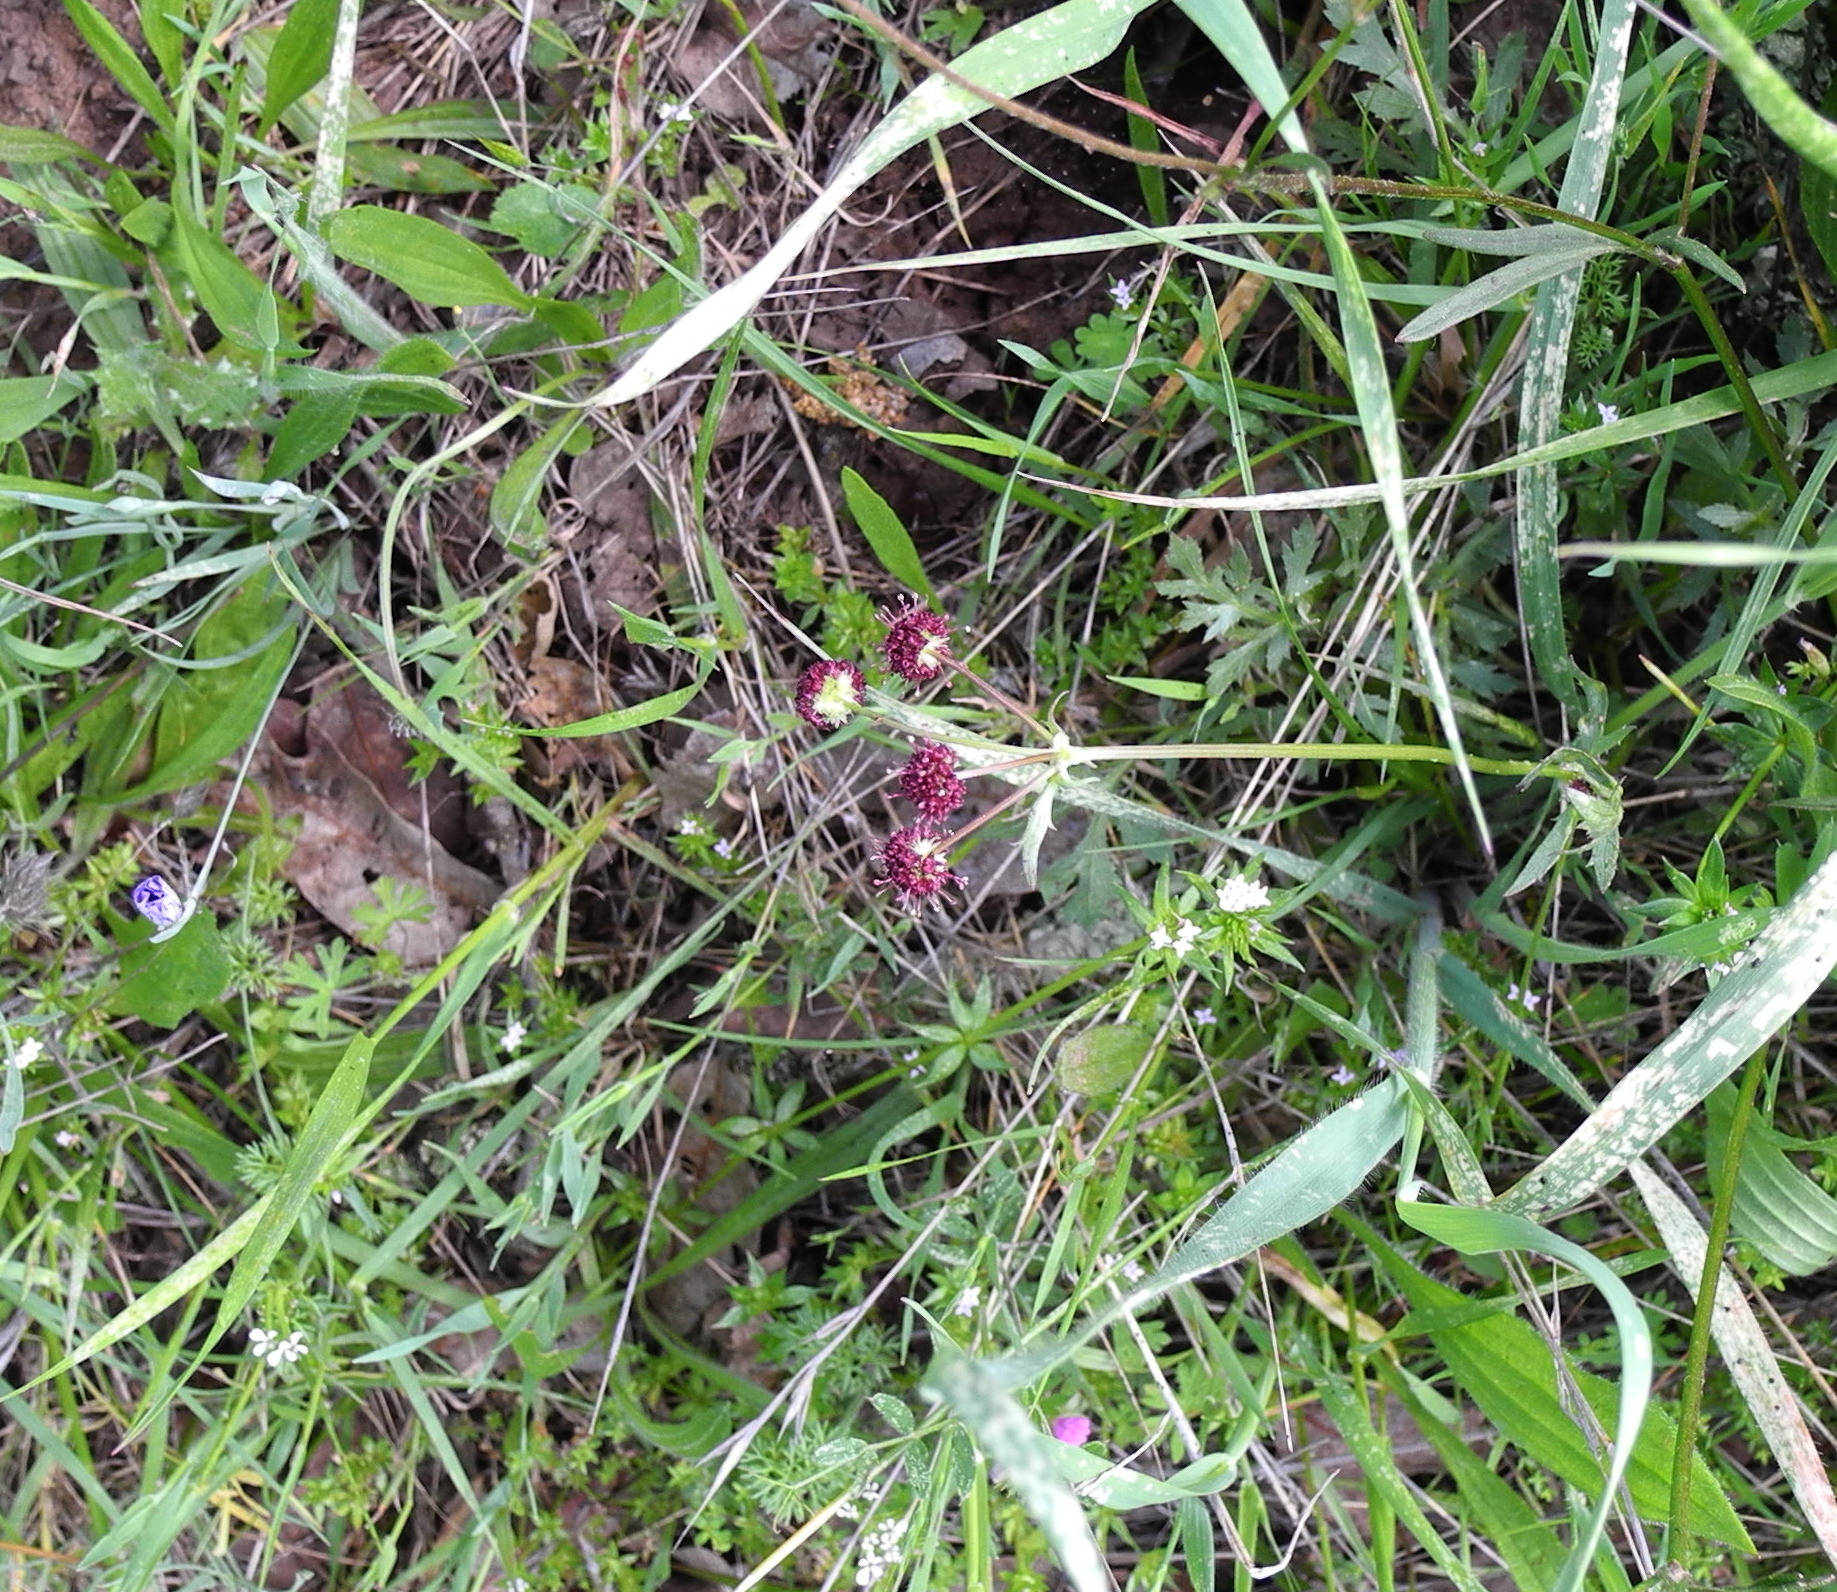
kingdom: Plantae
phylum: Tracheophyta
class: Magnoliopsida
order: Apiales
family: Apiaceae
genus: Sanicula
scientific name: Sanicula bipinnatifida
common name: Shoe-buttons
